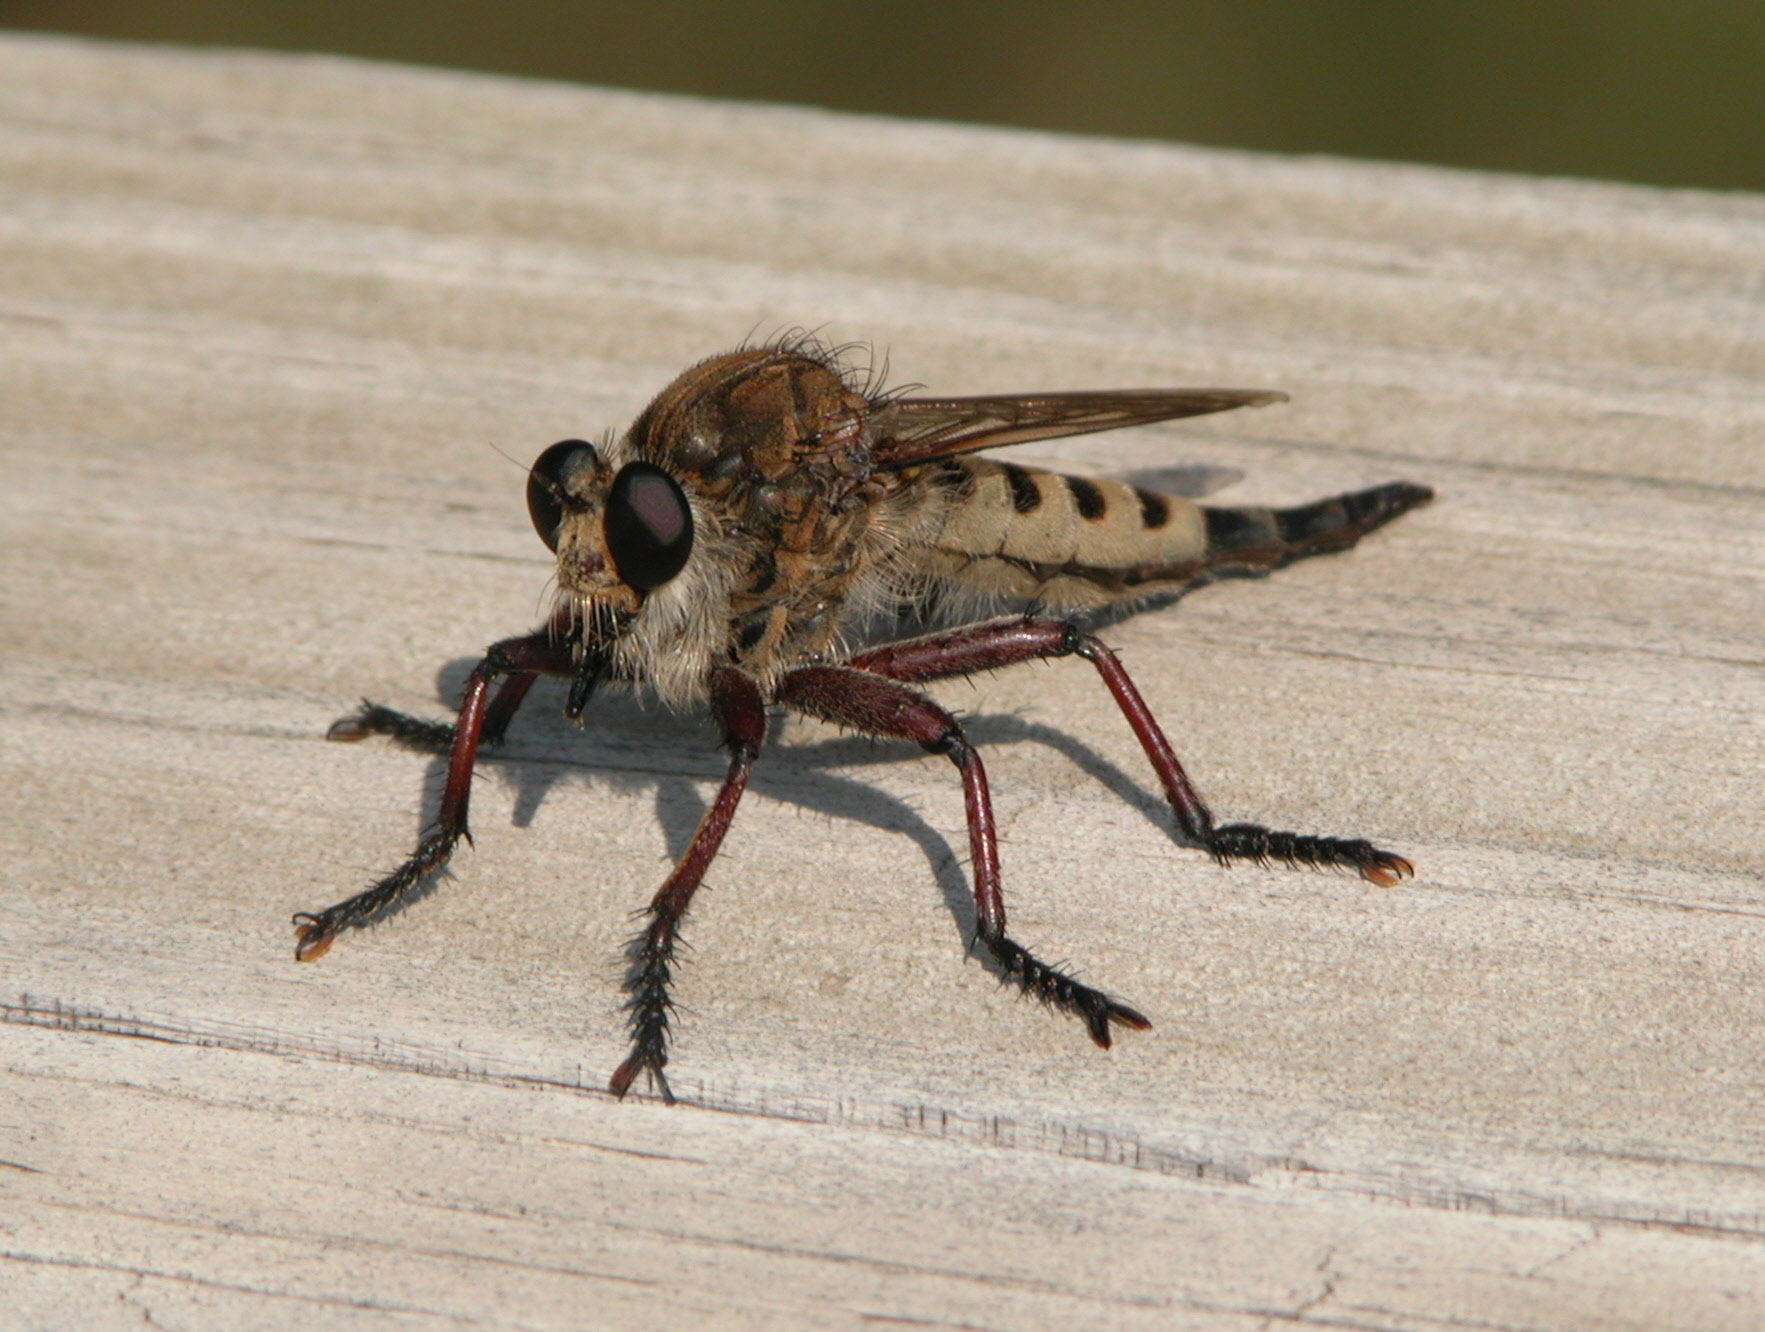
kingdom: Animalia
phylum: Arthropoda
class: Insecta
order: Diptera
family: Asilidae
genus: Promachus
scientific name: Promachus hinei
